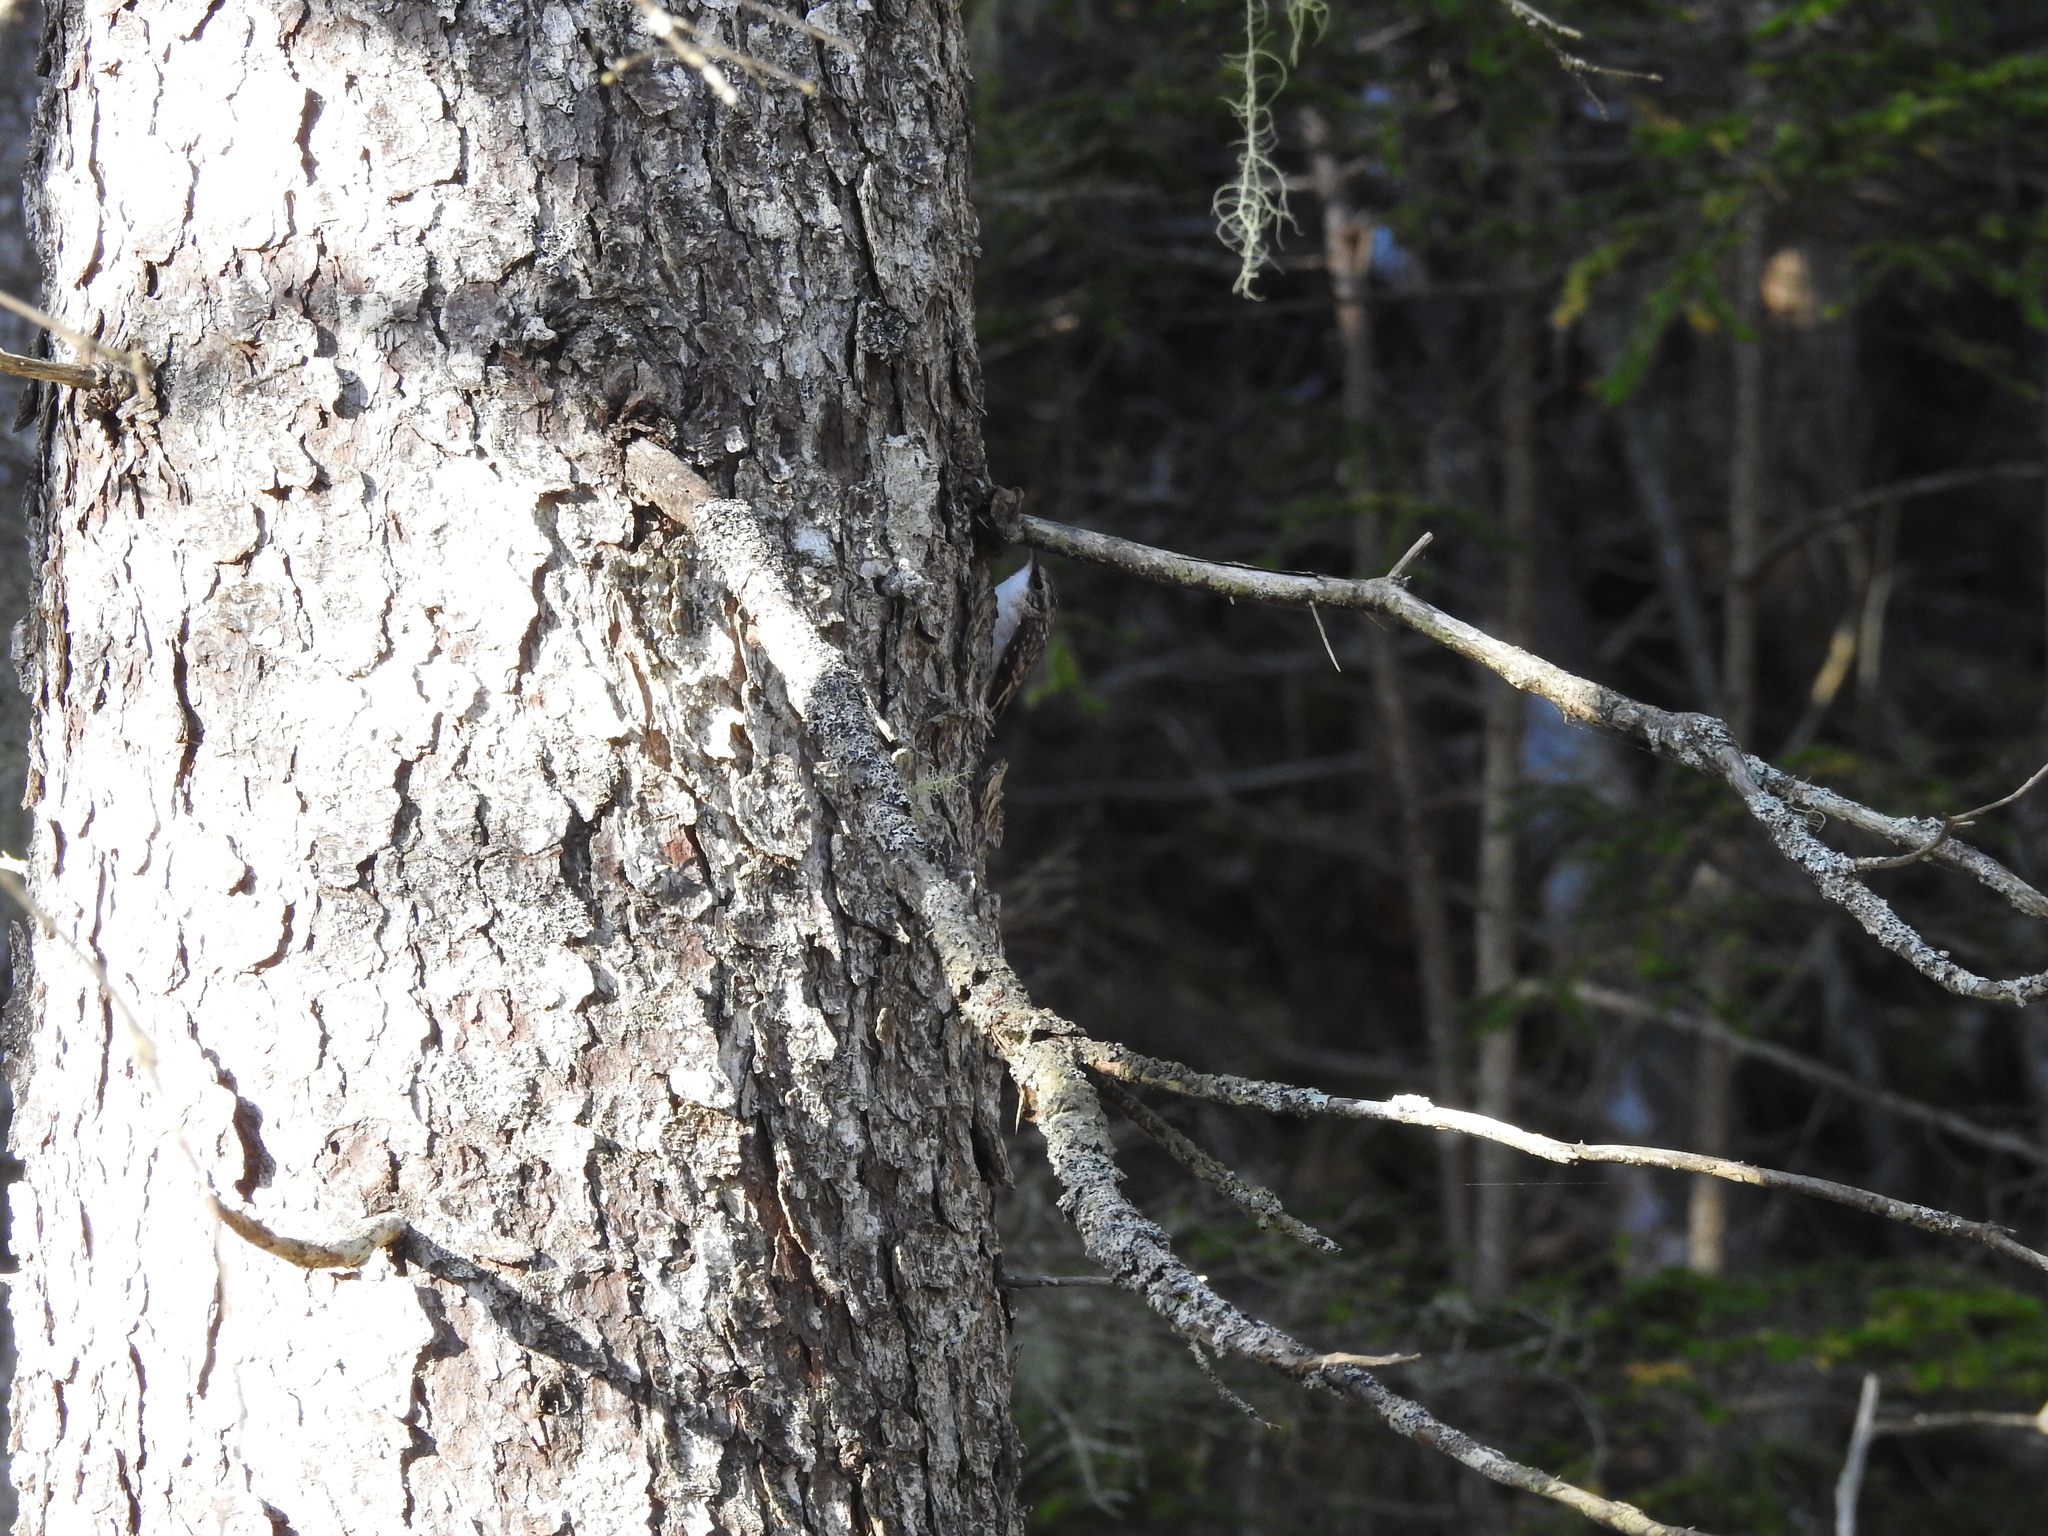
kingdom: Animalia
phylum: Chordata
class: Aves
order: Passeriformes
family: Certhiidae
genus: Certhia
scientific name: Certhia americana
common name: Brown creeper
